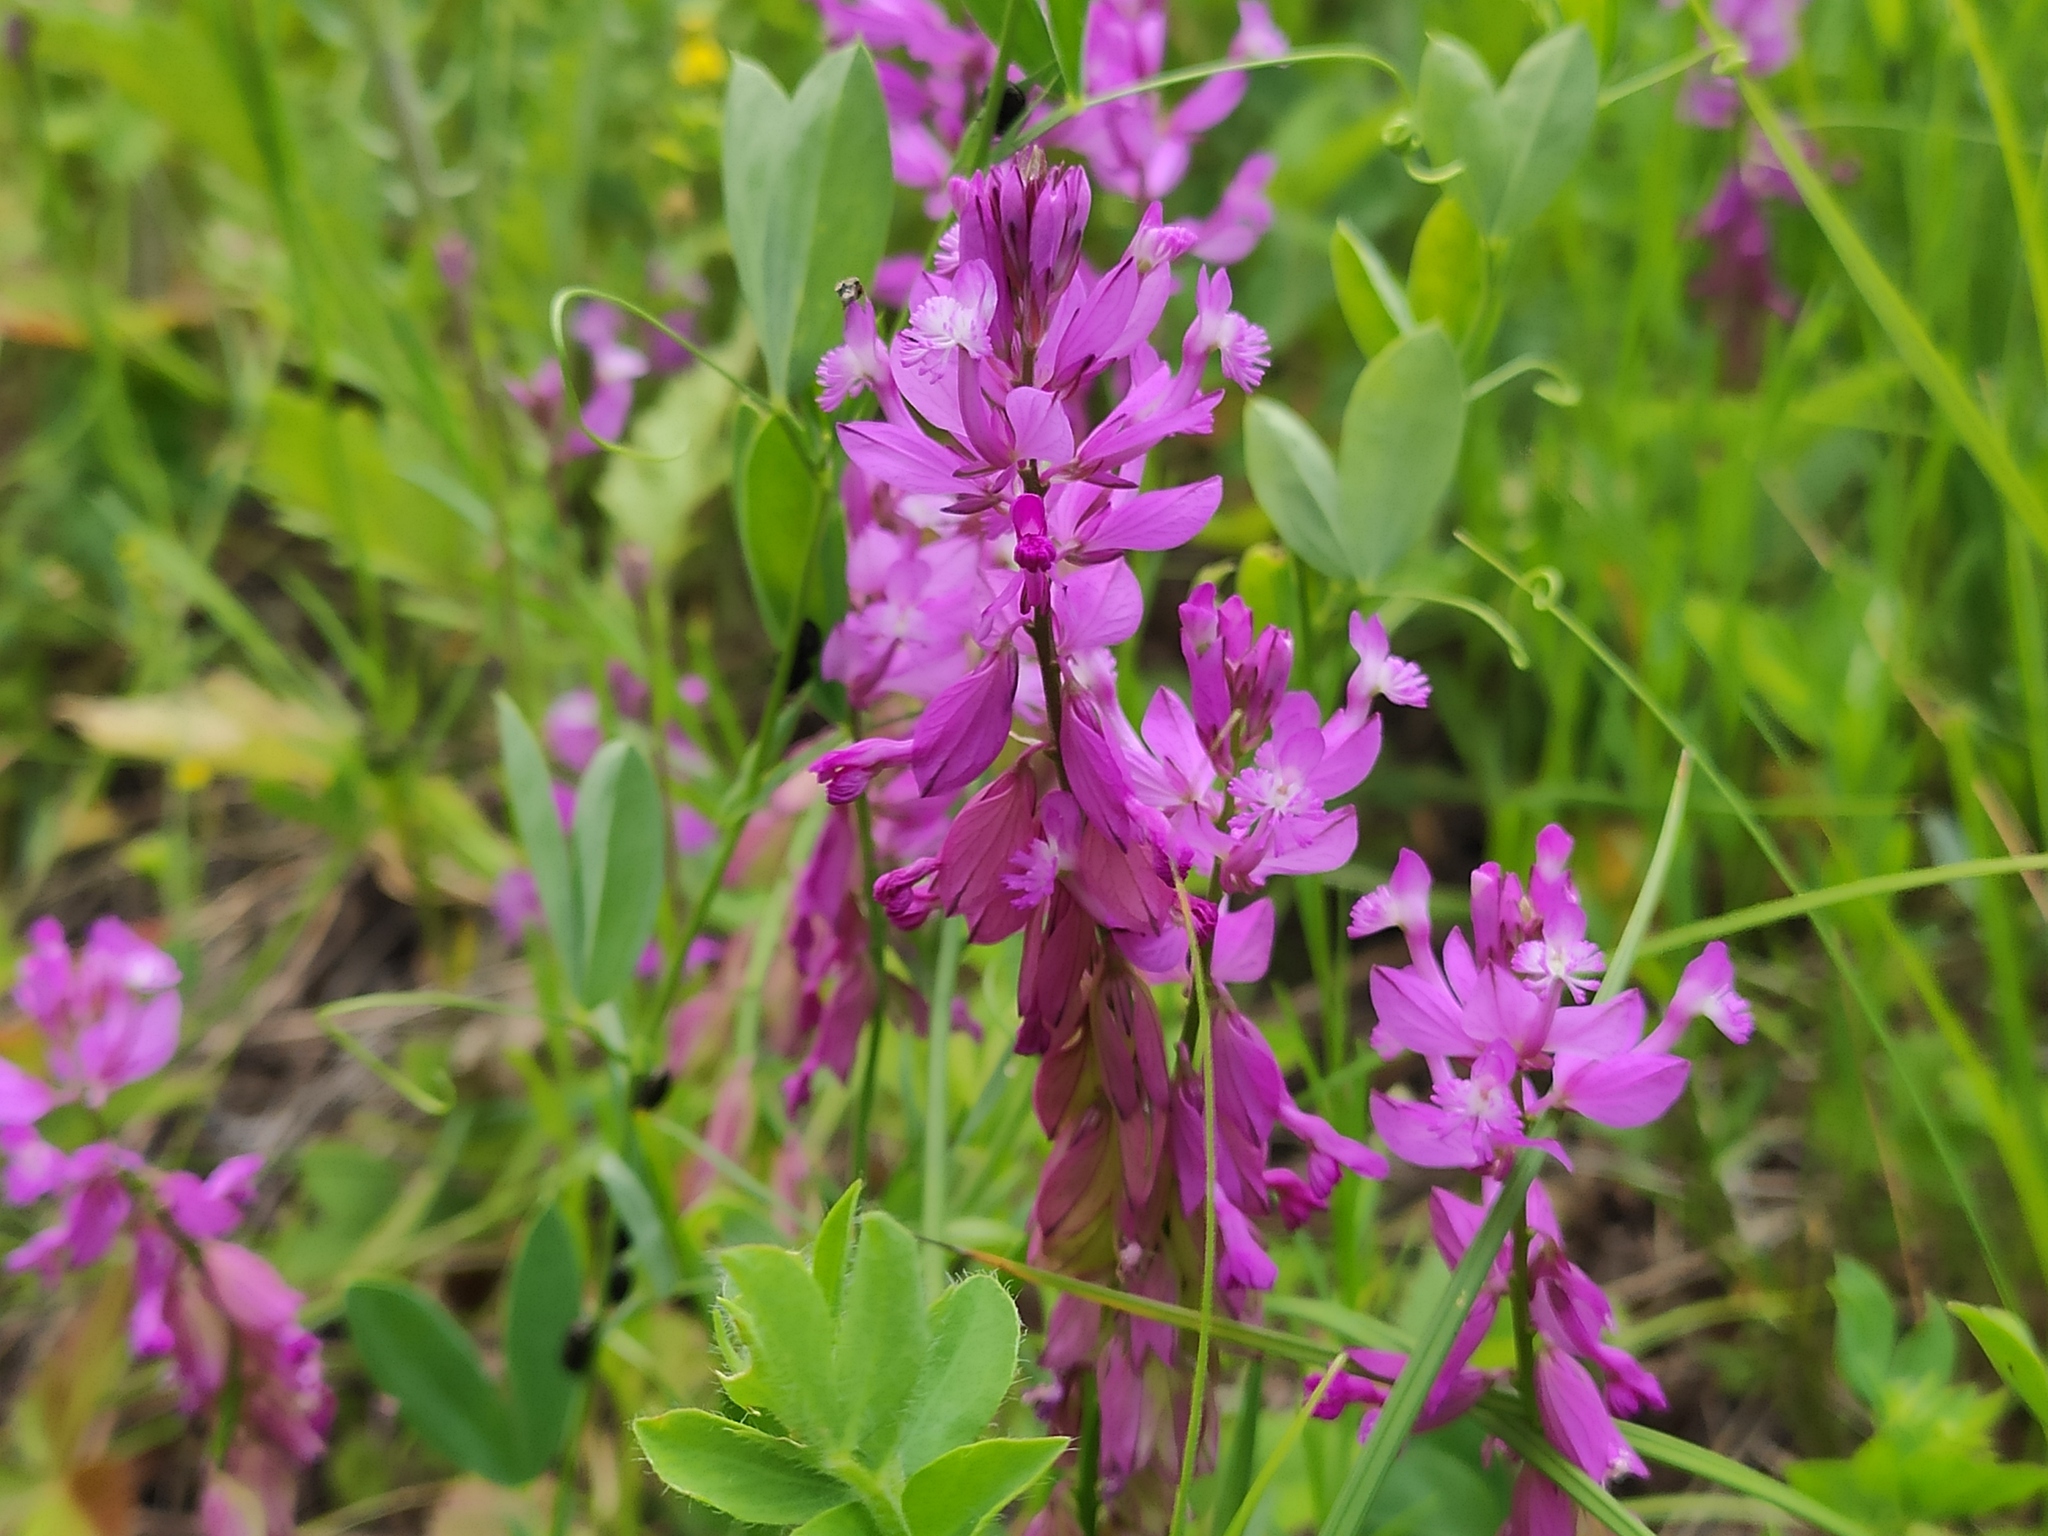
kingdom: Plantae
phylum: Tracheophyta
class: Magnoliopsida
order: Fabales
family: Polygalaceae
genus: Polygala
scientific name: Polygala major
